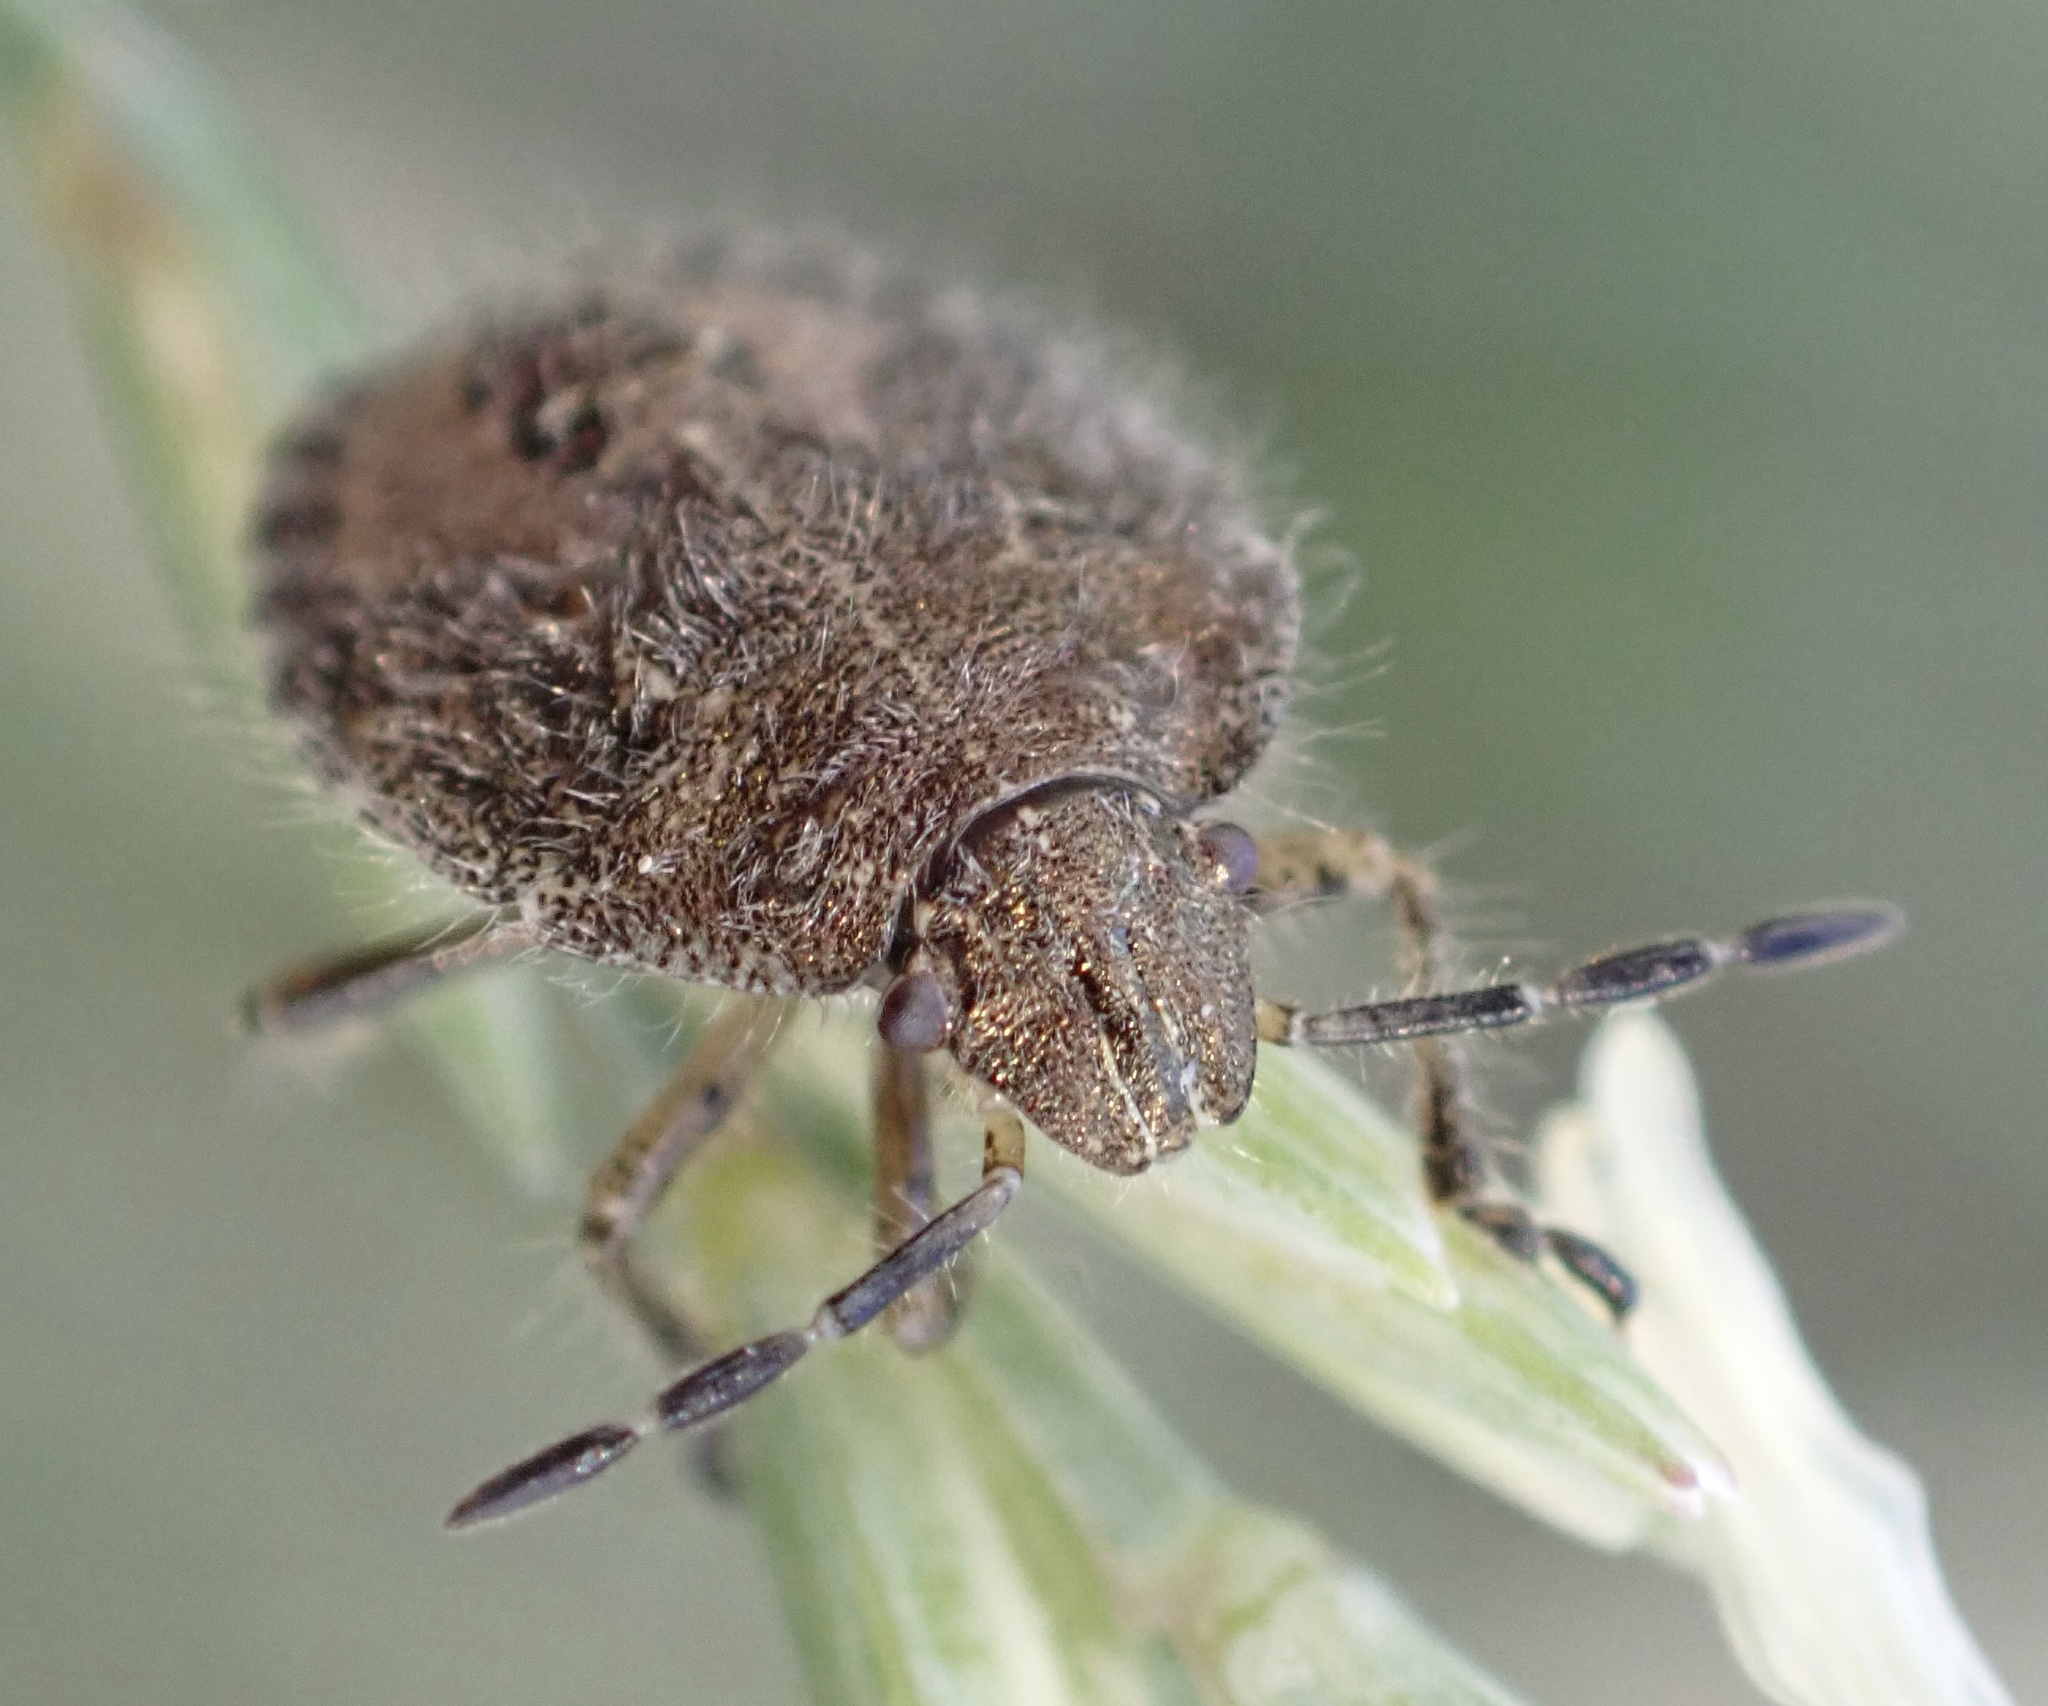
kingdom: Animalia
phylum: Arthropoda
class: Insecta
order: Hemiptera
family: Pentatomidae
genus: Dolycoris
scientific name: Dolycoris baccarum
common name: Sloe bug
